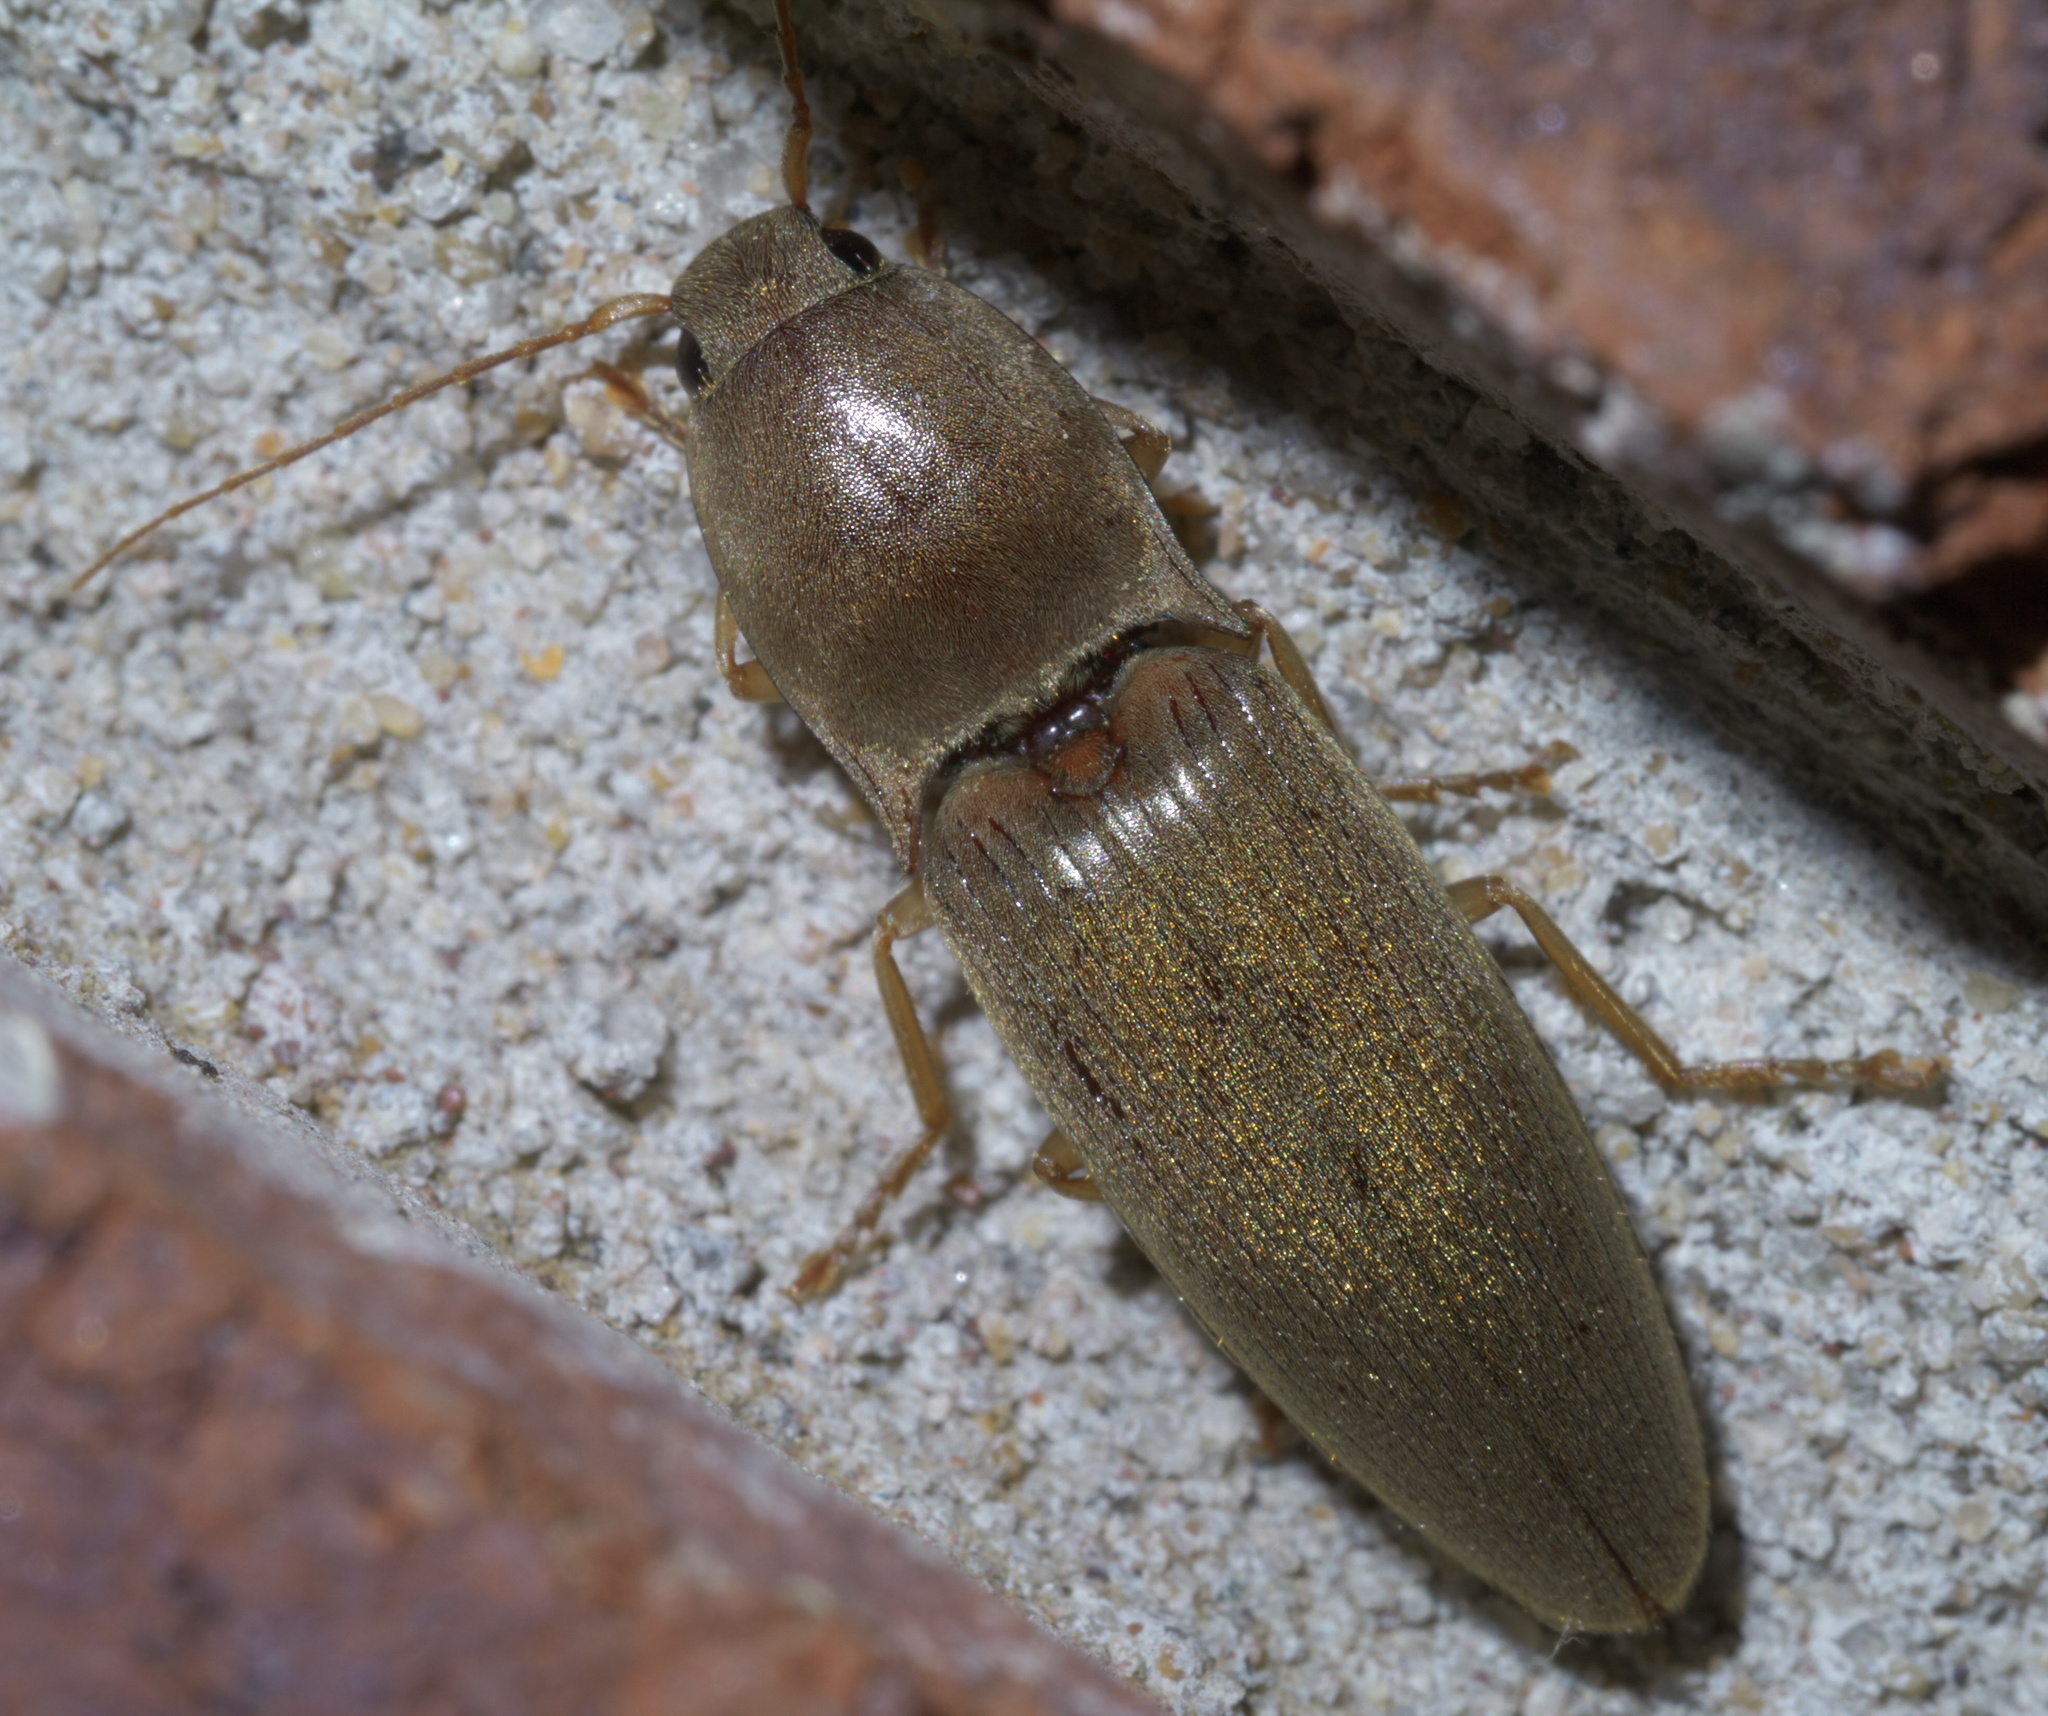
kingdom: Animalia
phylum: Arthropoda
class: Insecta
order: Coleoptera
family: Elateridae
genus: Monocrepidius
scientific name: Monocrepidius lividus
